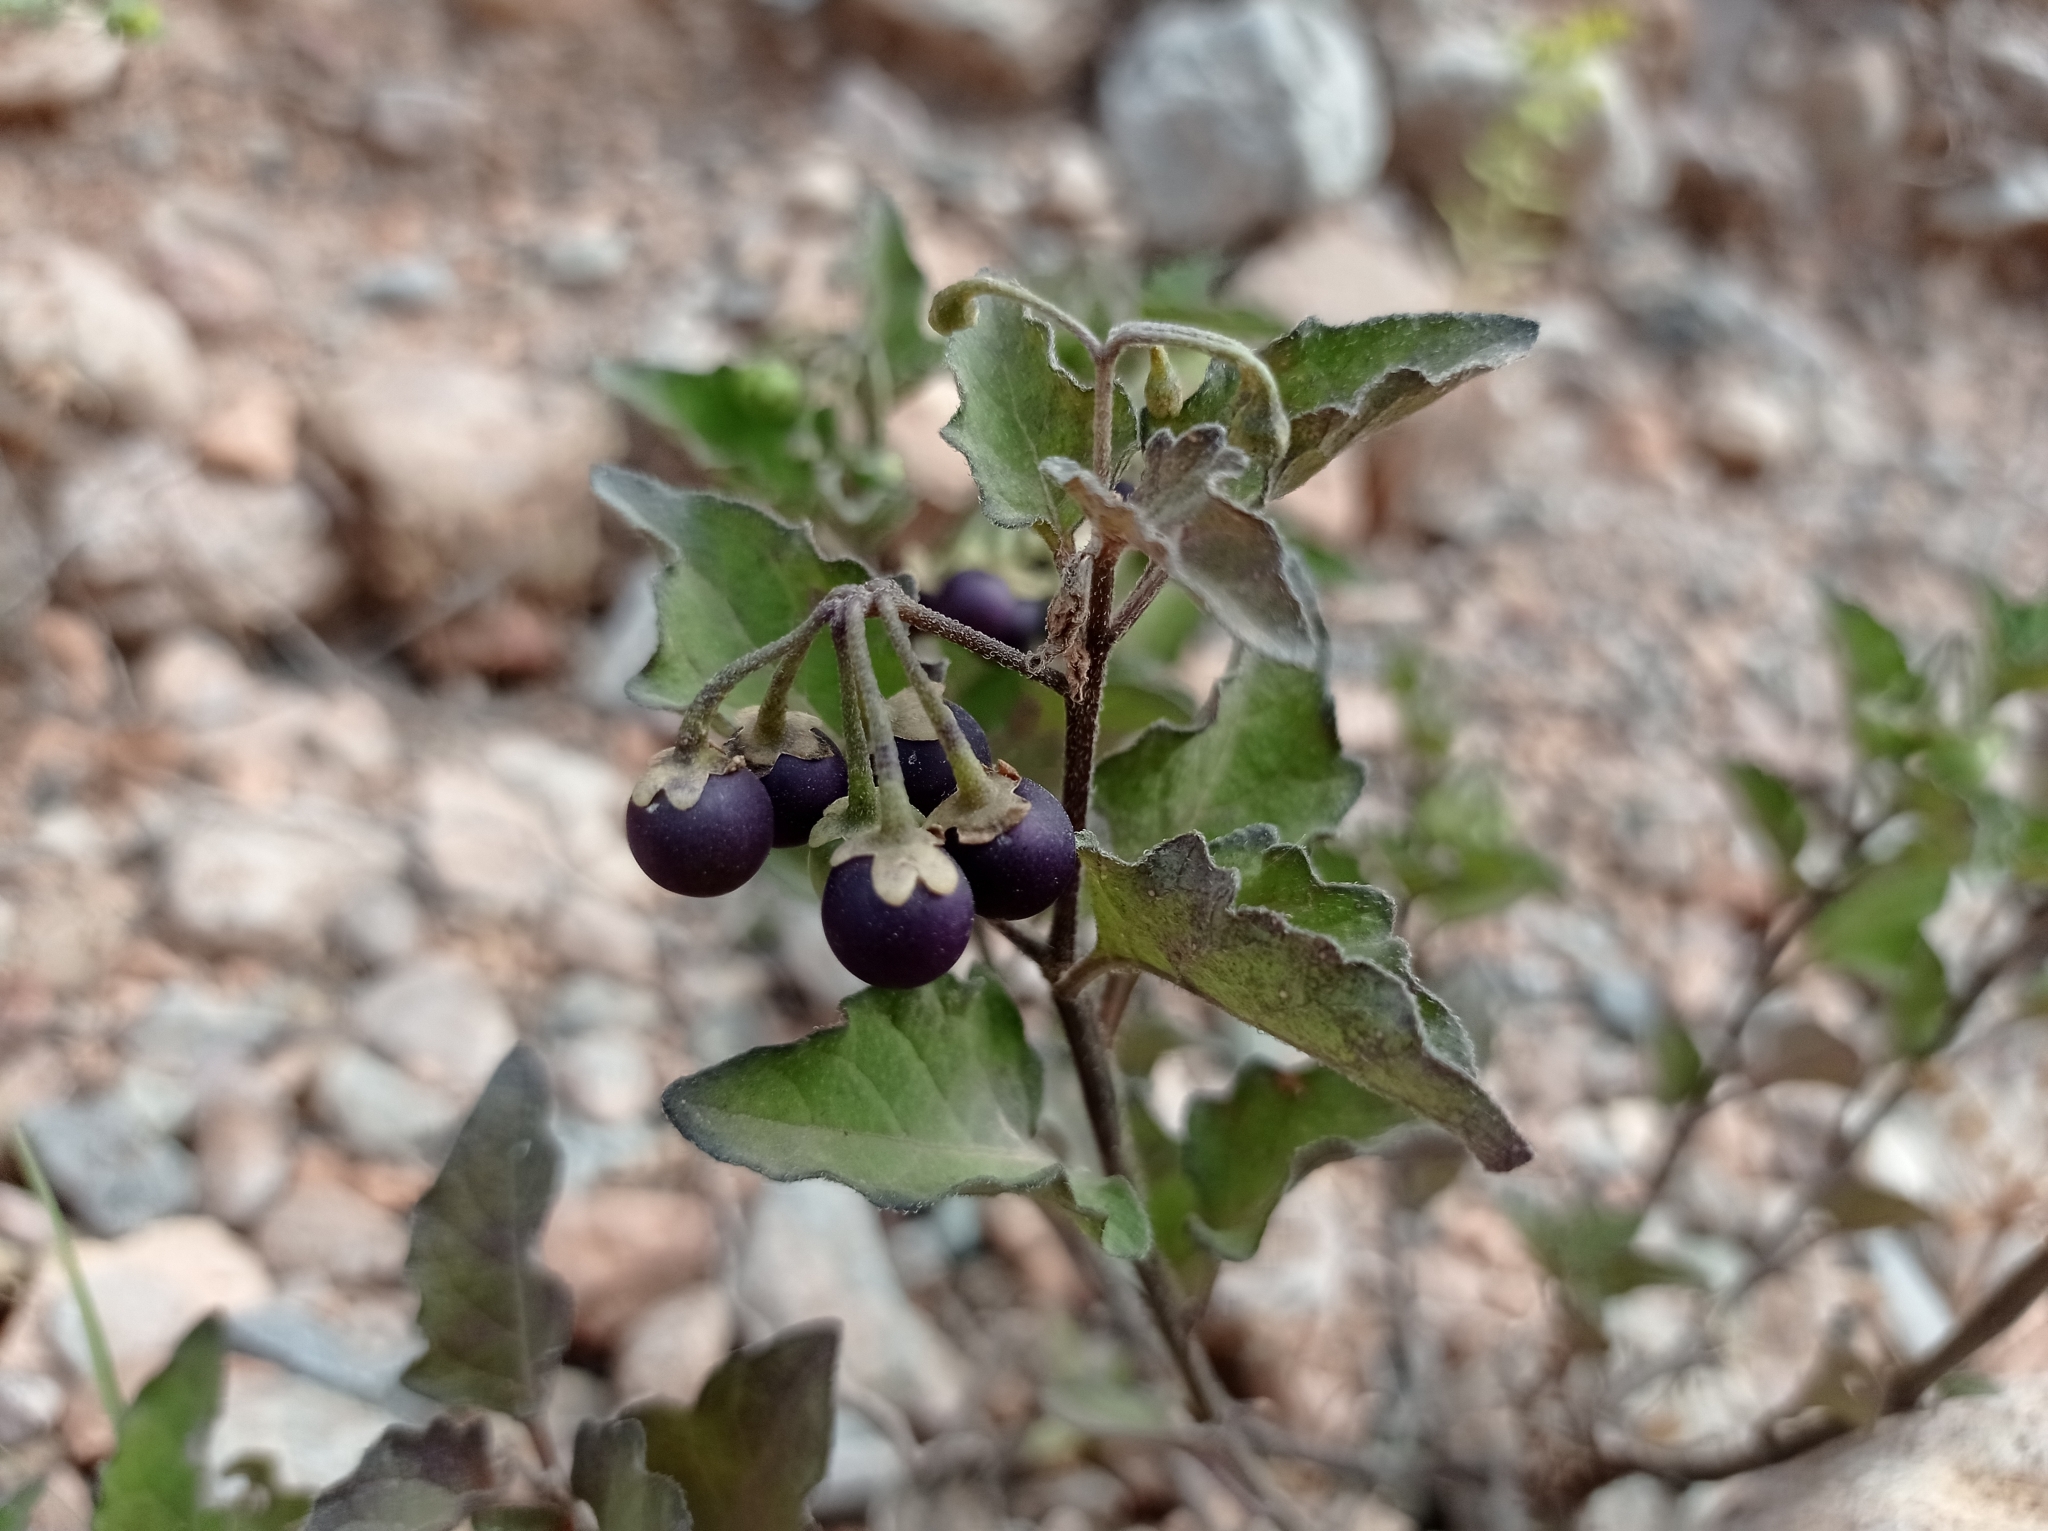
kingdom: Plantae
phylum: Tracheophyta
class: Magnoliopsida
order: Solanales
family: Solanaceae
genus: Solanum
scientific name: Solanum nigrum
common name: Black nightshade
